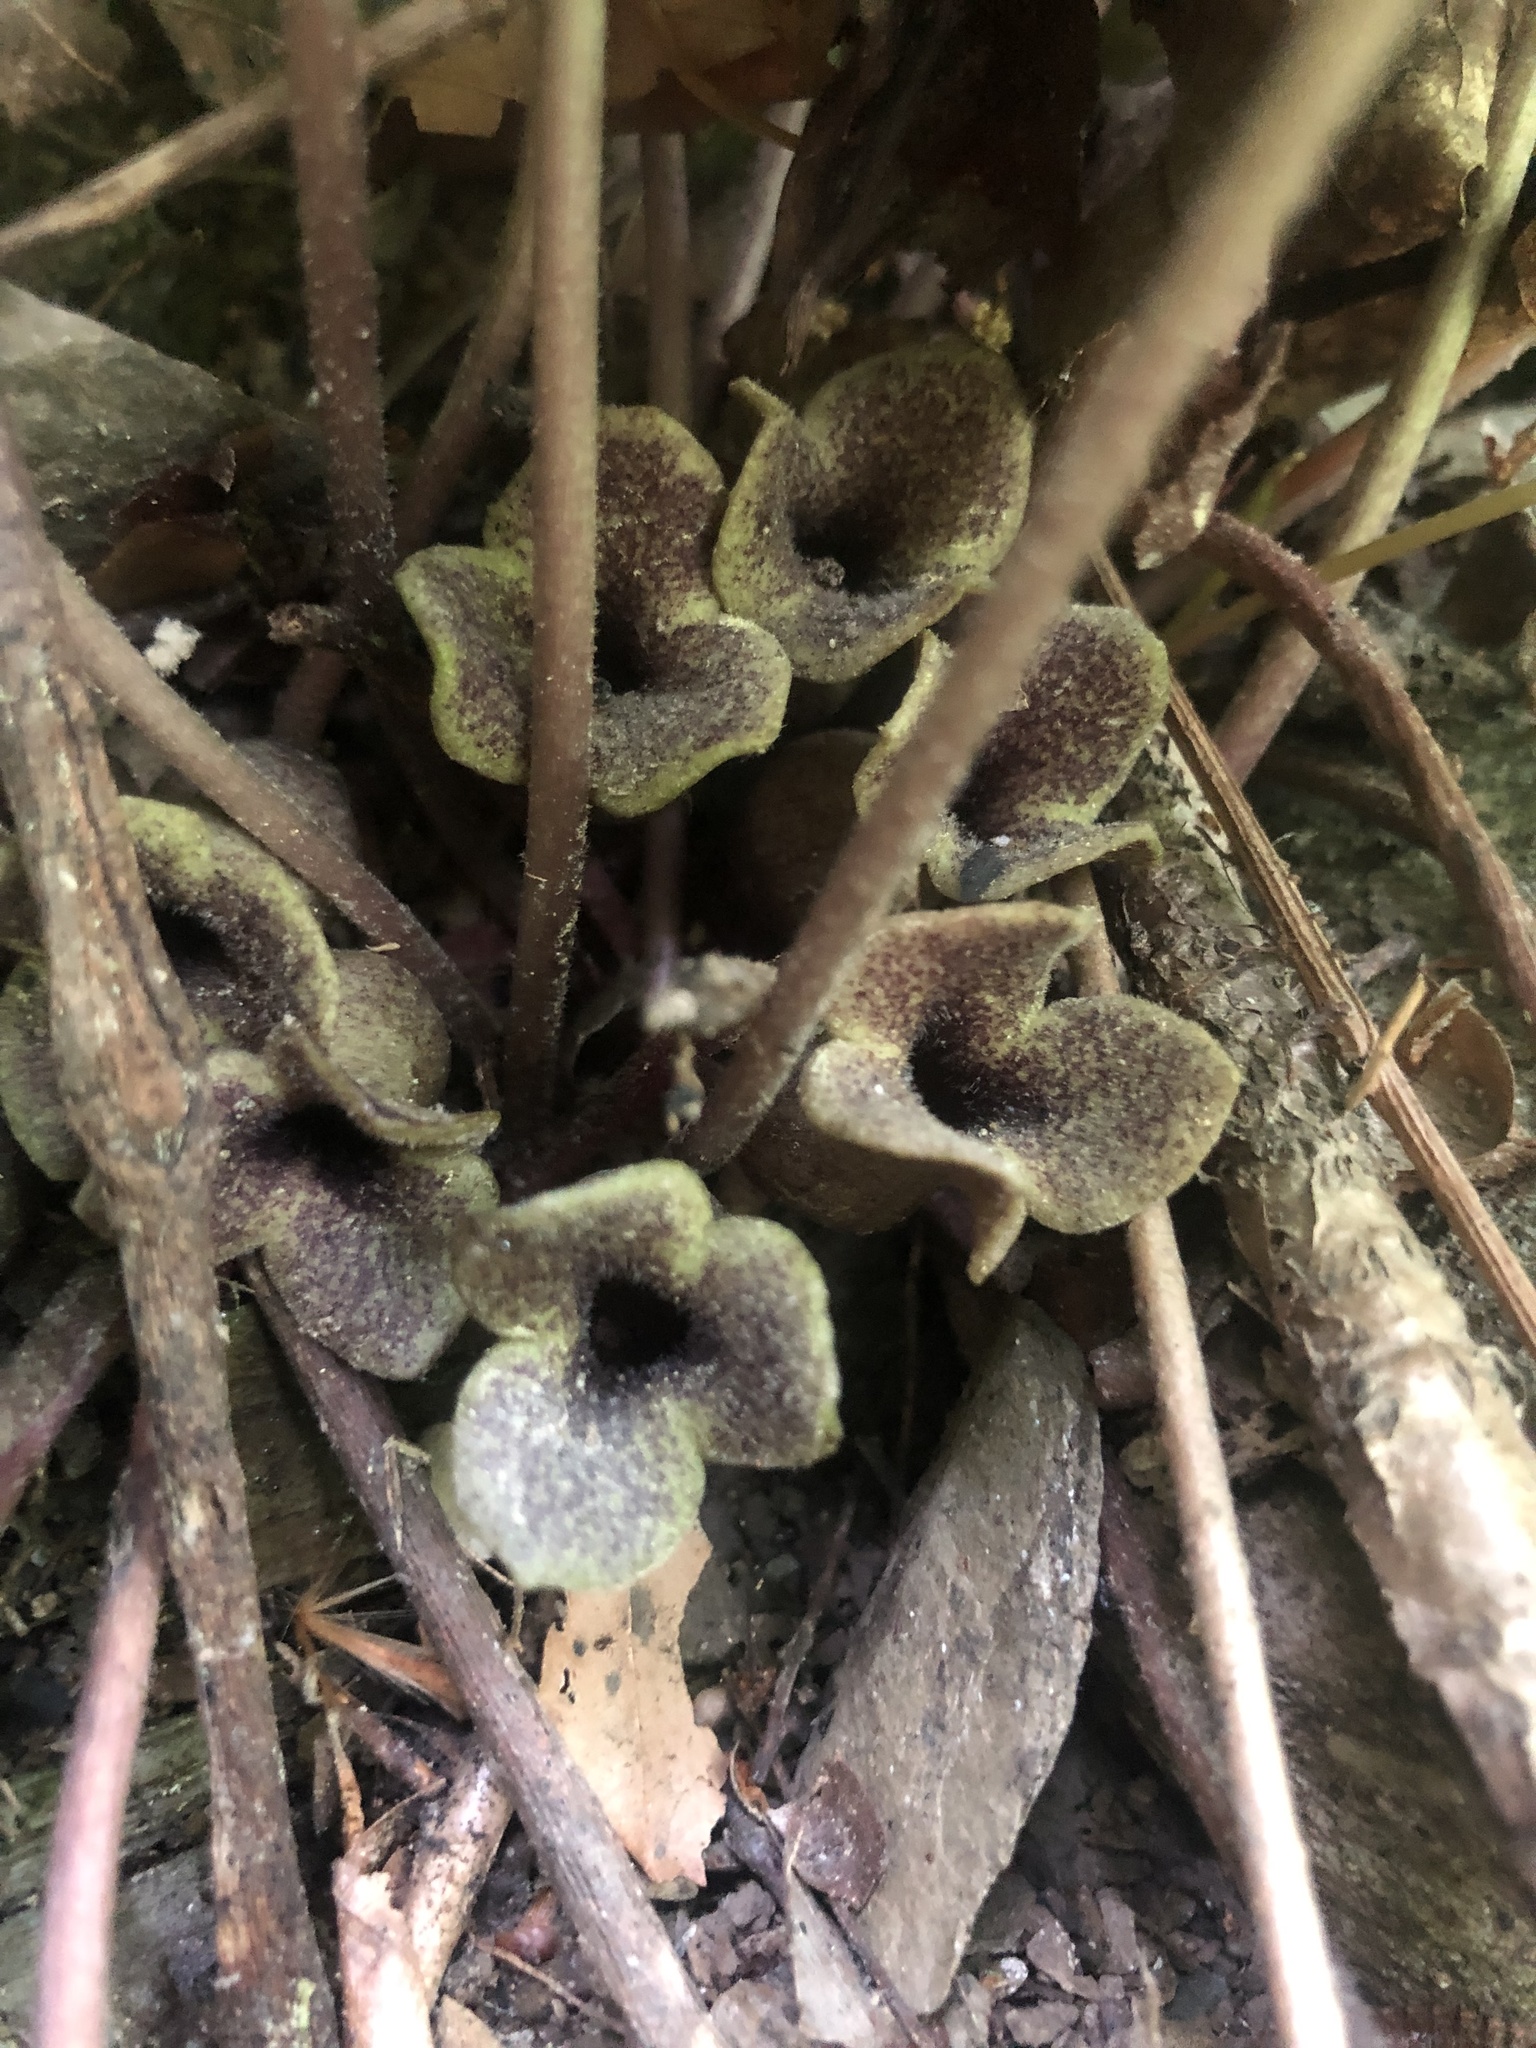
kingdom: Plantae
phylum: Tracheophyta
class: Magnoliopsida
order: Piperales
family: Aristolochiaceae
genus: Hexastylis
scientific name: Hexastylis arifolia
